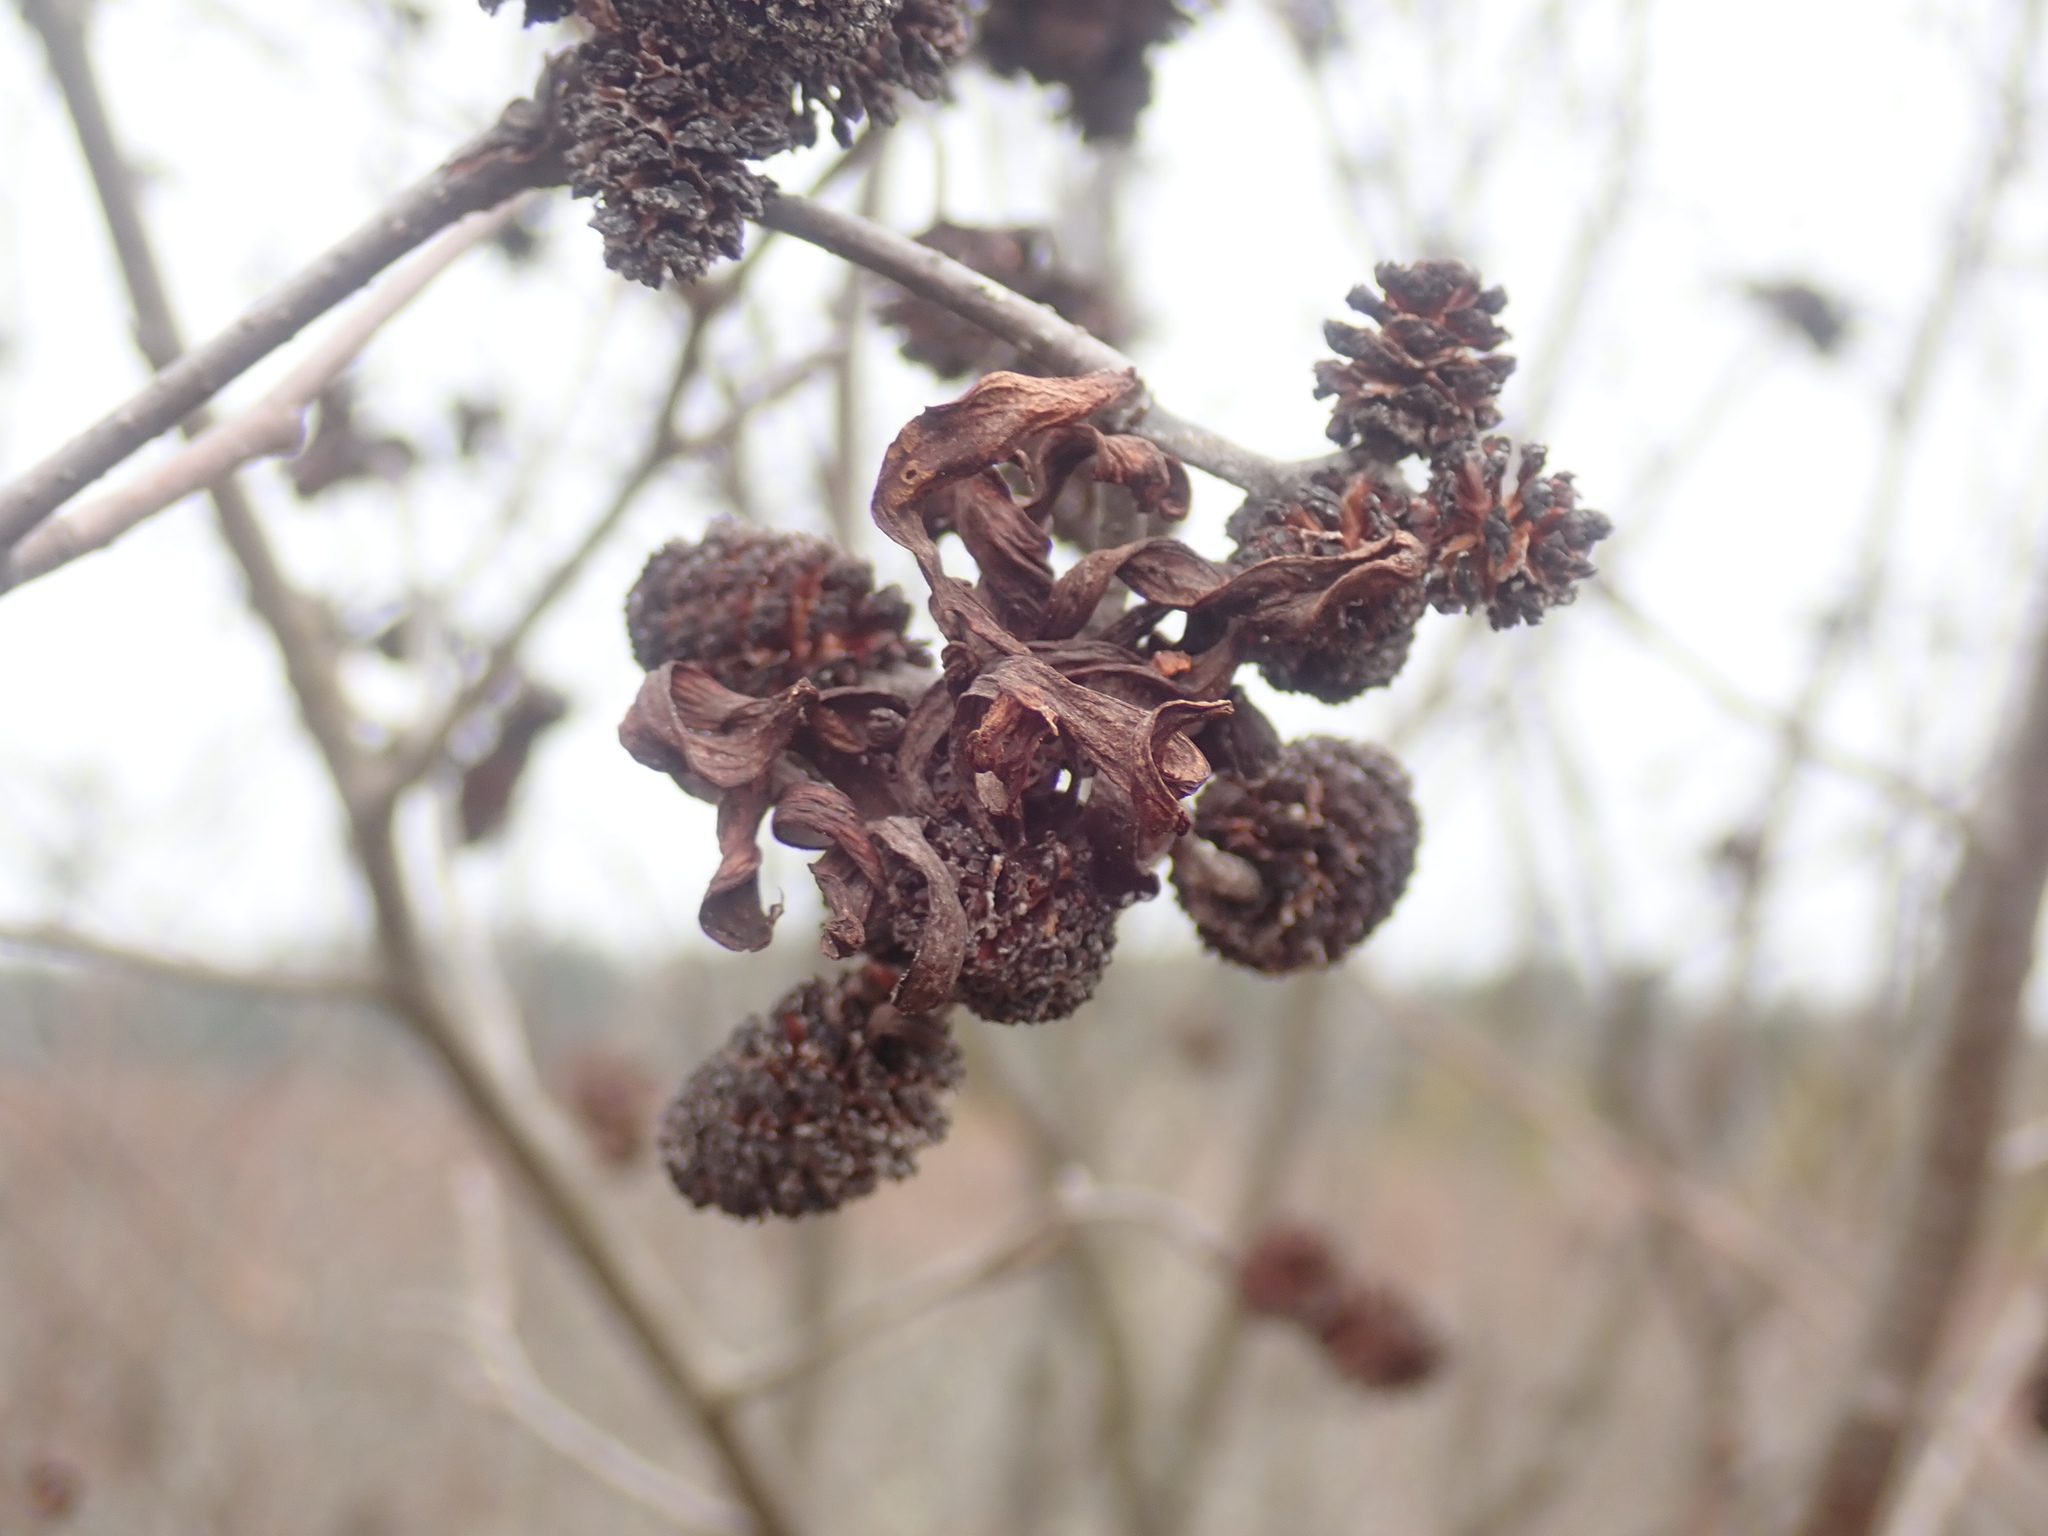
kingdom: Fungi
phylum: Ascomycota
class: Taphrinomycetes
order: Taphrinales
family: Taphrinaceae
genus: Taphrina
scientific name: Taphrina robinsoniana
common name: Eastern american alder tongue gall fungus
